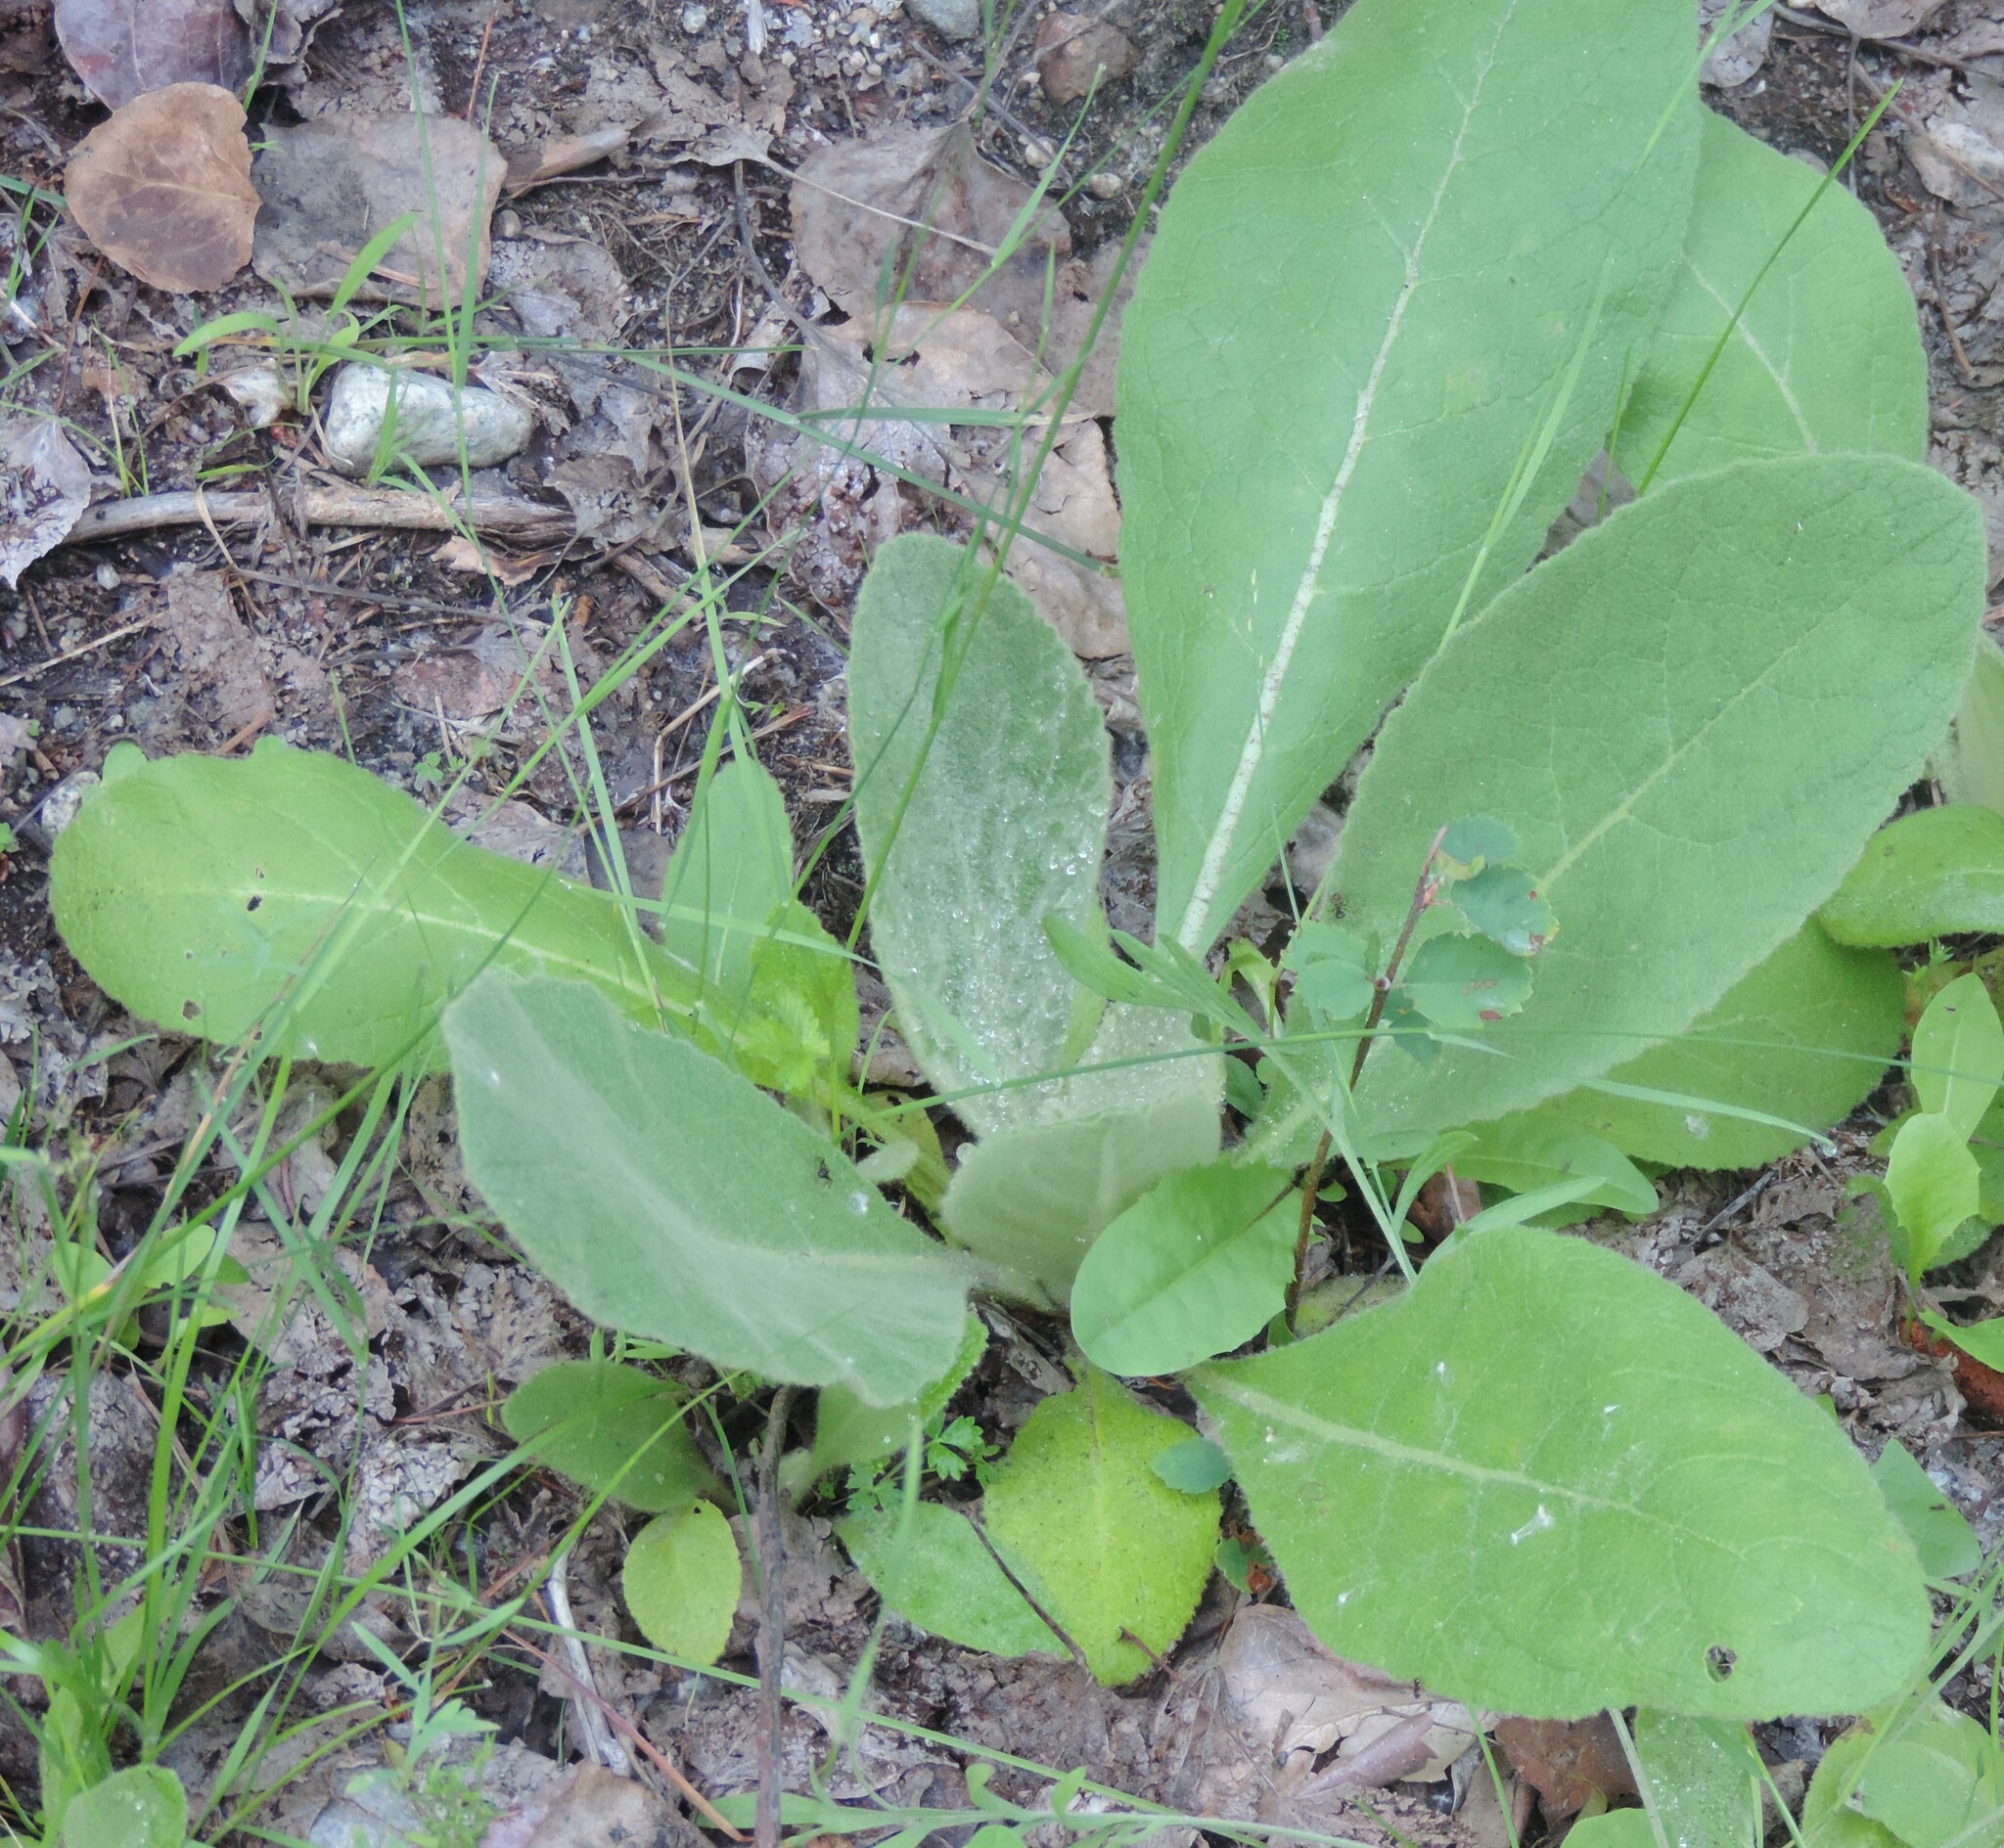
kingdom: Plantae
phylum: Tracheophyta
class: Magnoliopsida
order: Lamiales
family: Scrophulariaceae
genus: Verbascum
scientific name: Verbascum thapsus
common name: Common mullein
